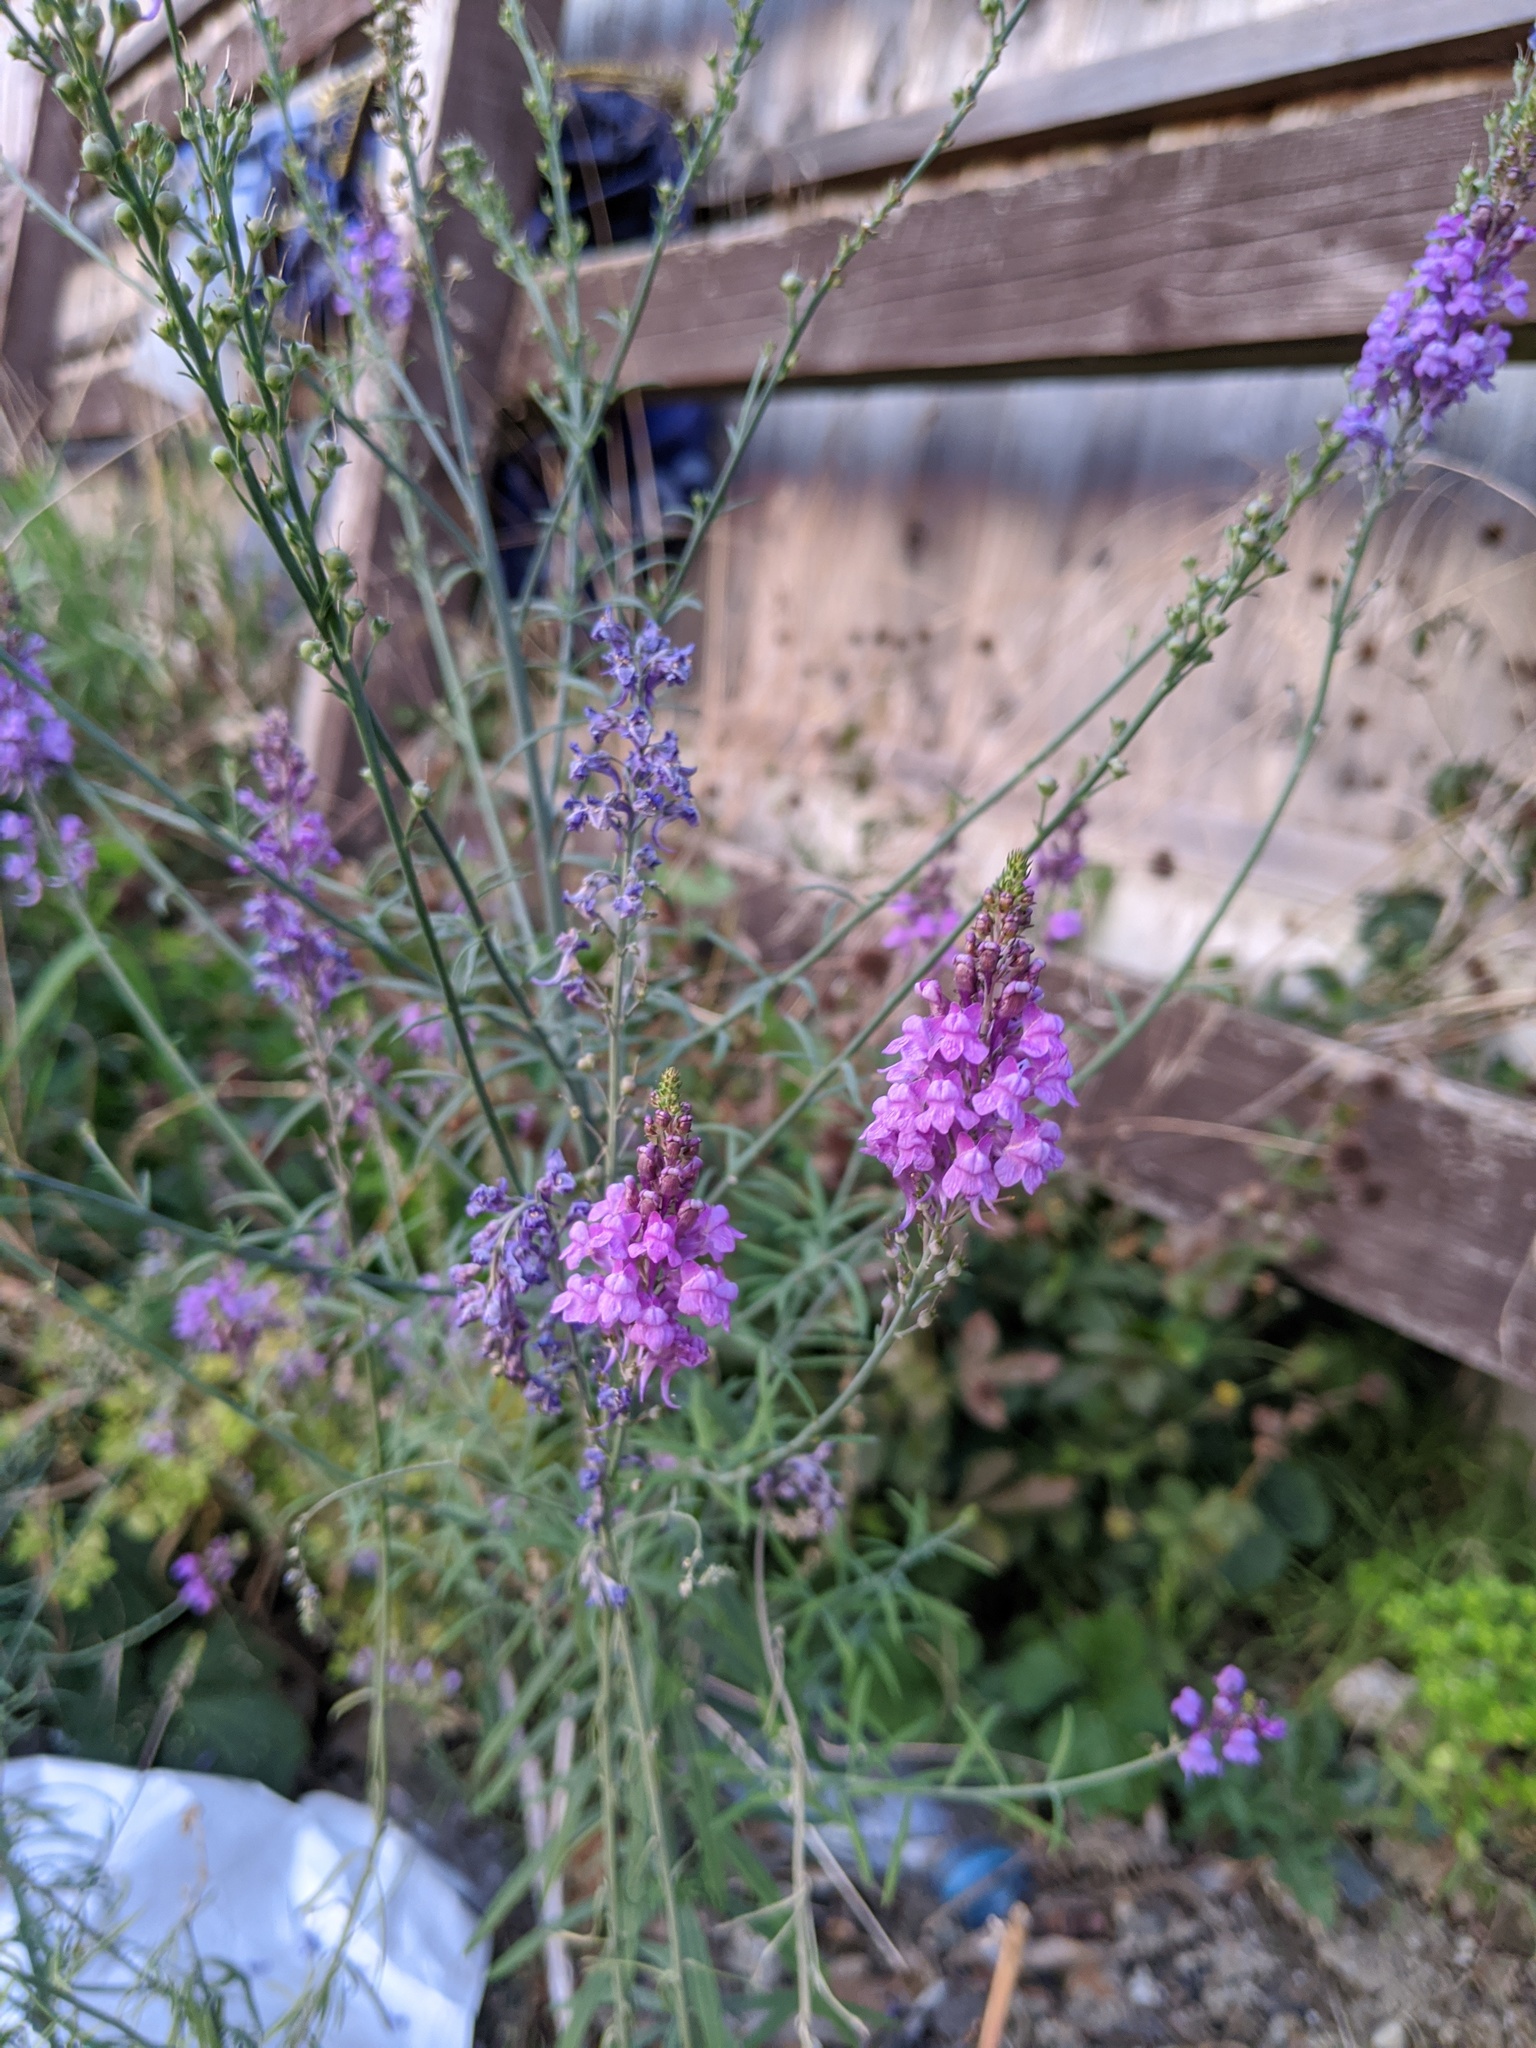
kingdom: Plantae
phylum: Tracheophyta
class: Magnoliopsida
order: Lamiales
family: Plantaginaceae
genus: Linaria
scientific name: Linaria purpurea
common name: Purple toadflax
